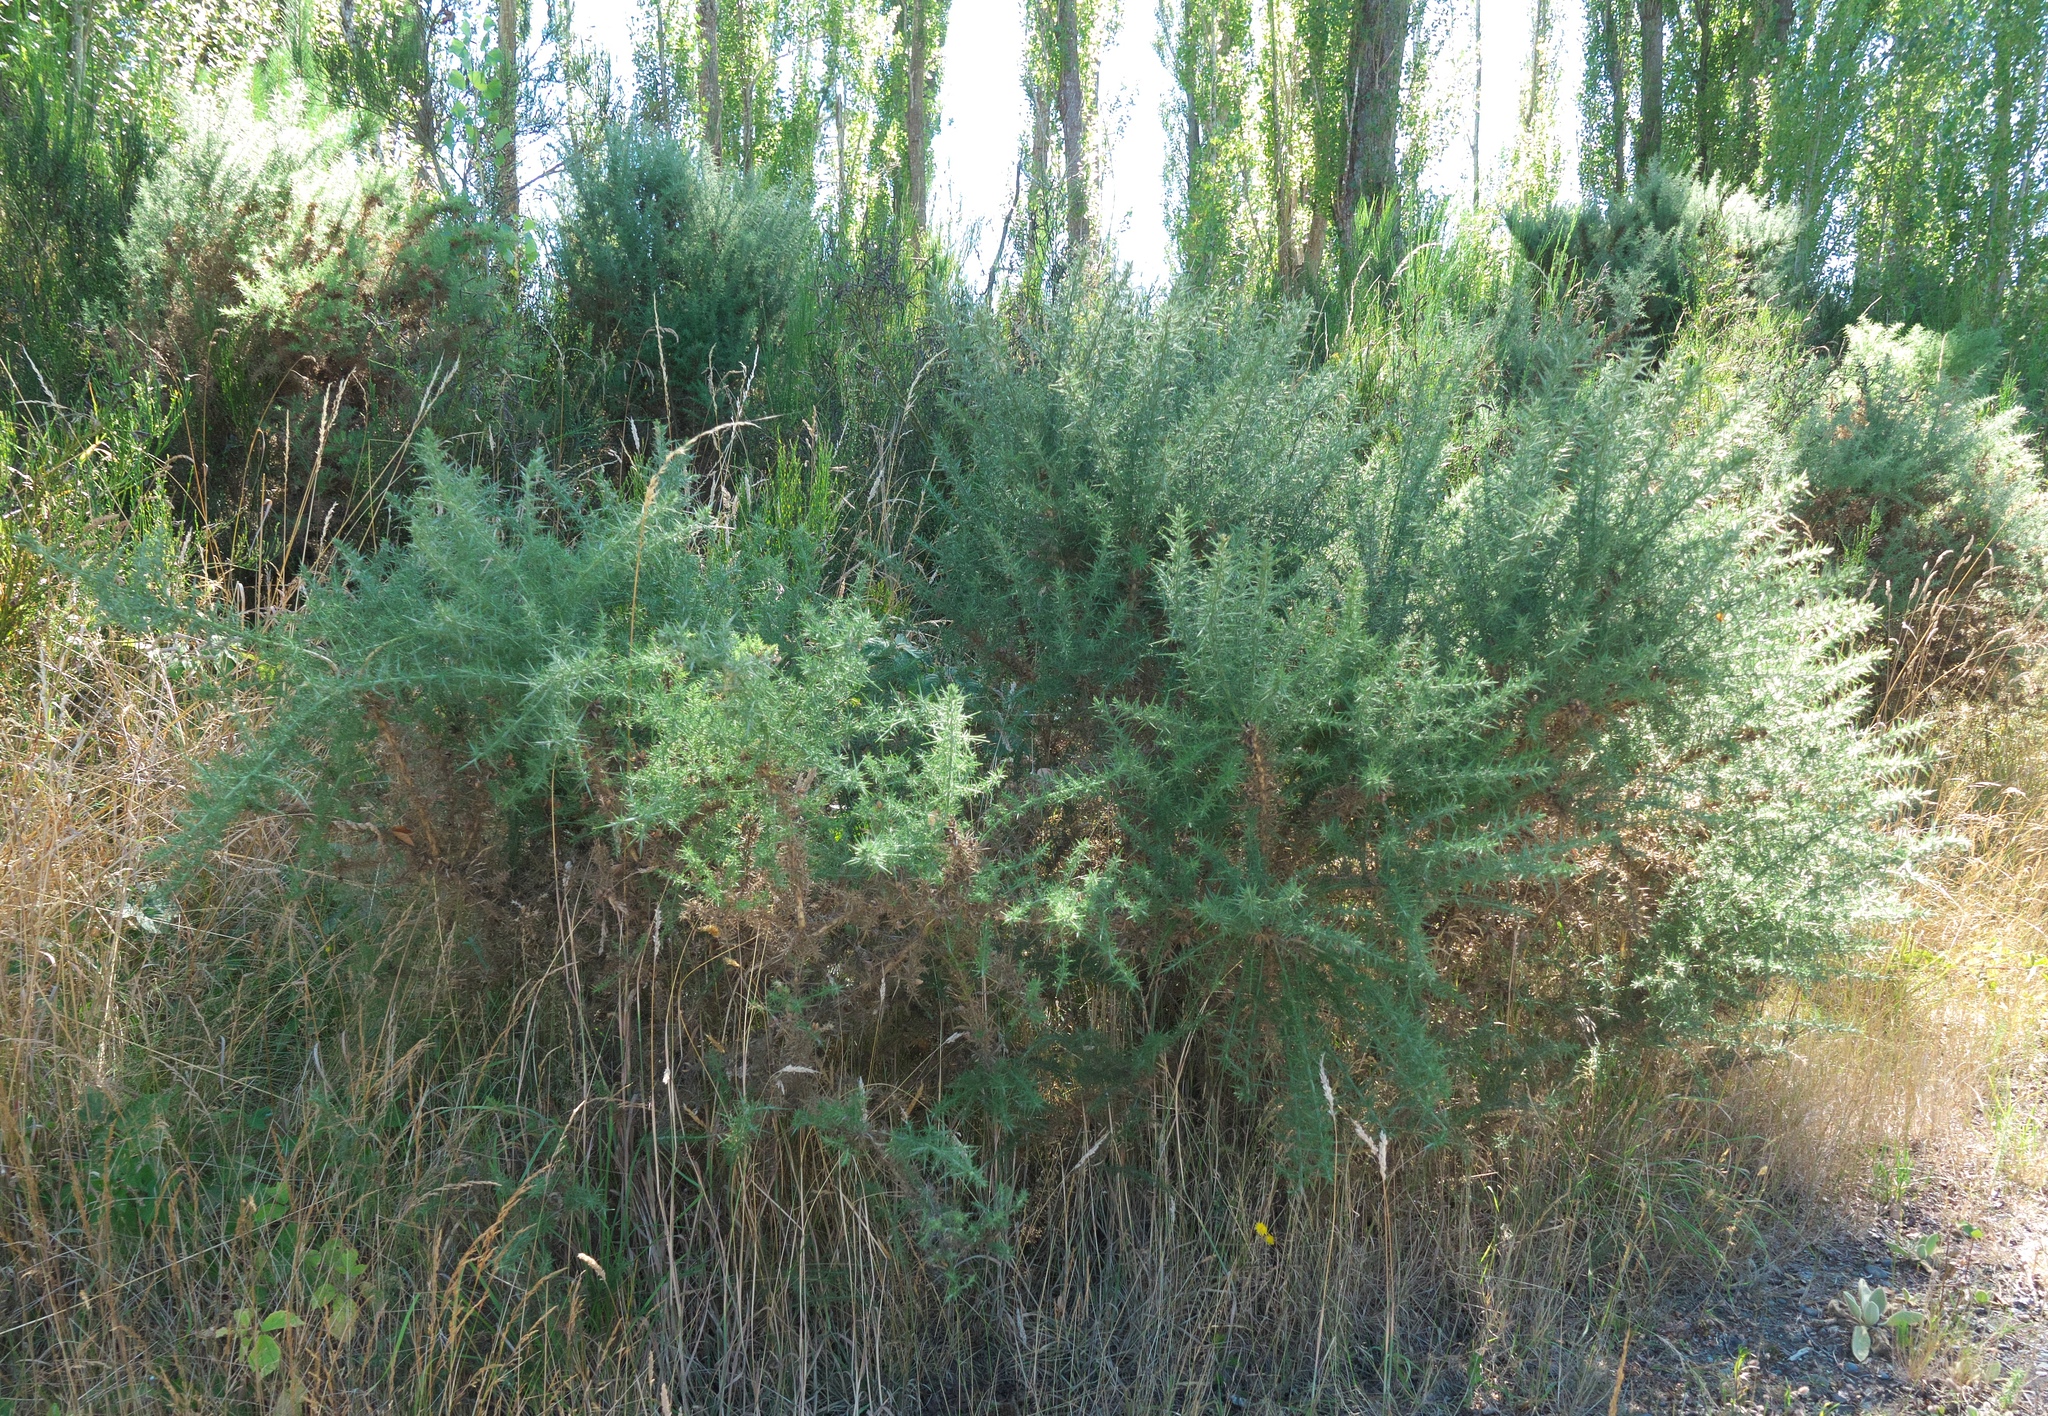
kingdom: Plantae
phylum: Tracheophyta
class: Magnoliopsida
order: Fabales
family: Fabaceae
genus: Ulex
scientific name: Ulex europaeus
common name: Common gorse
